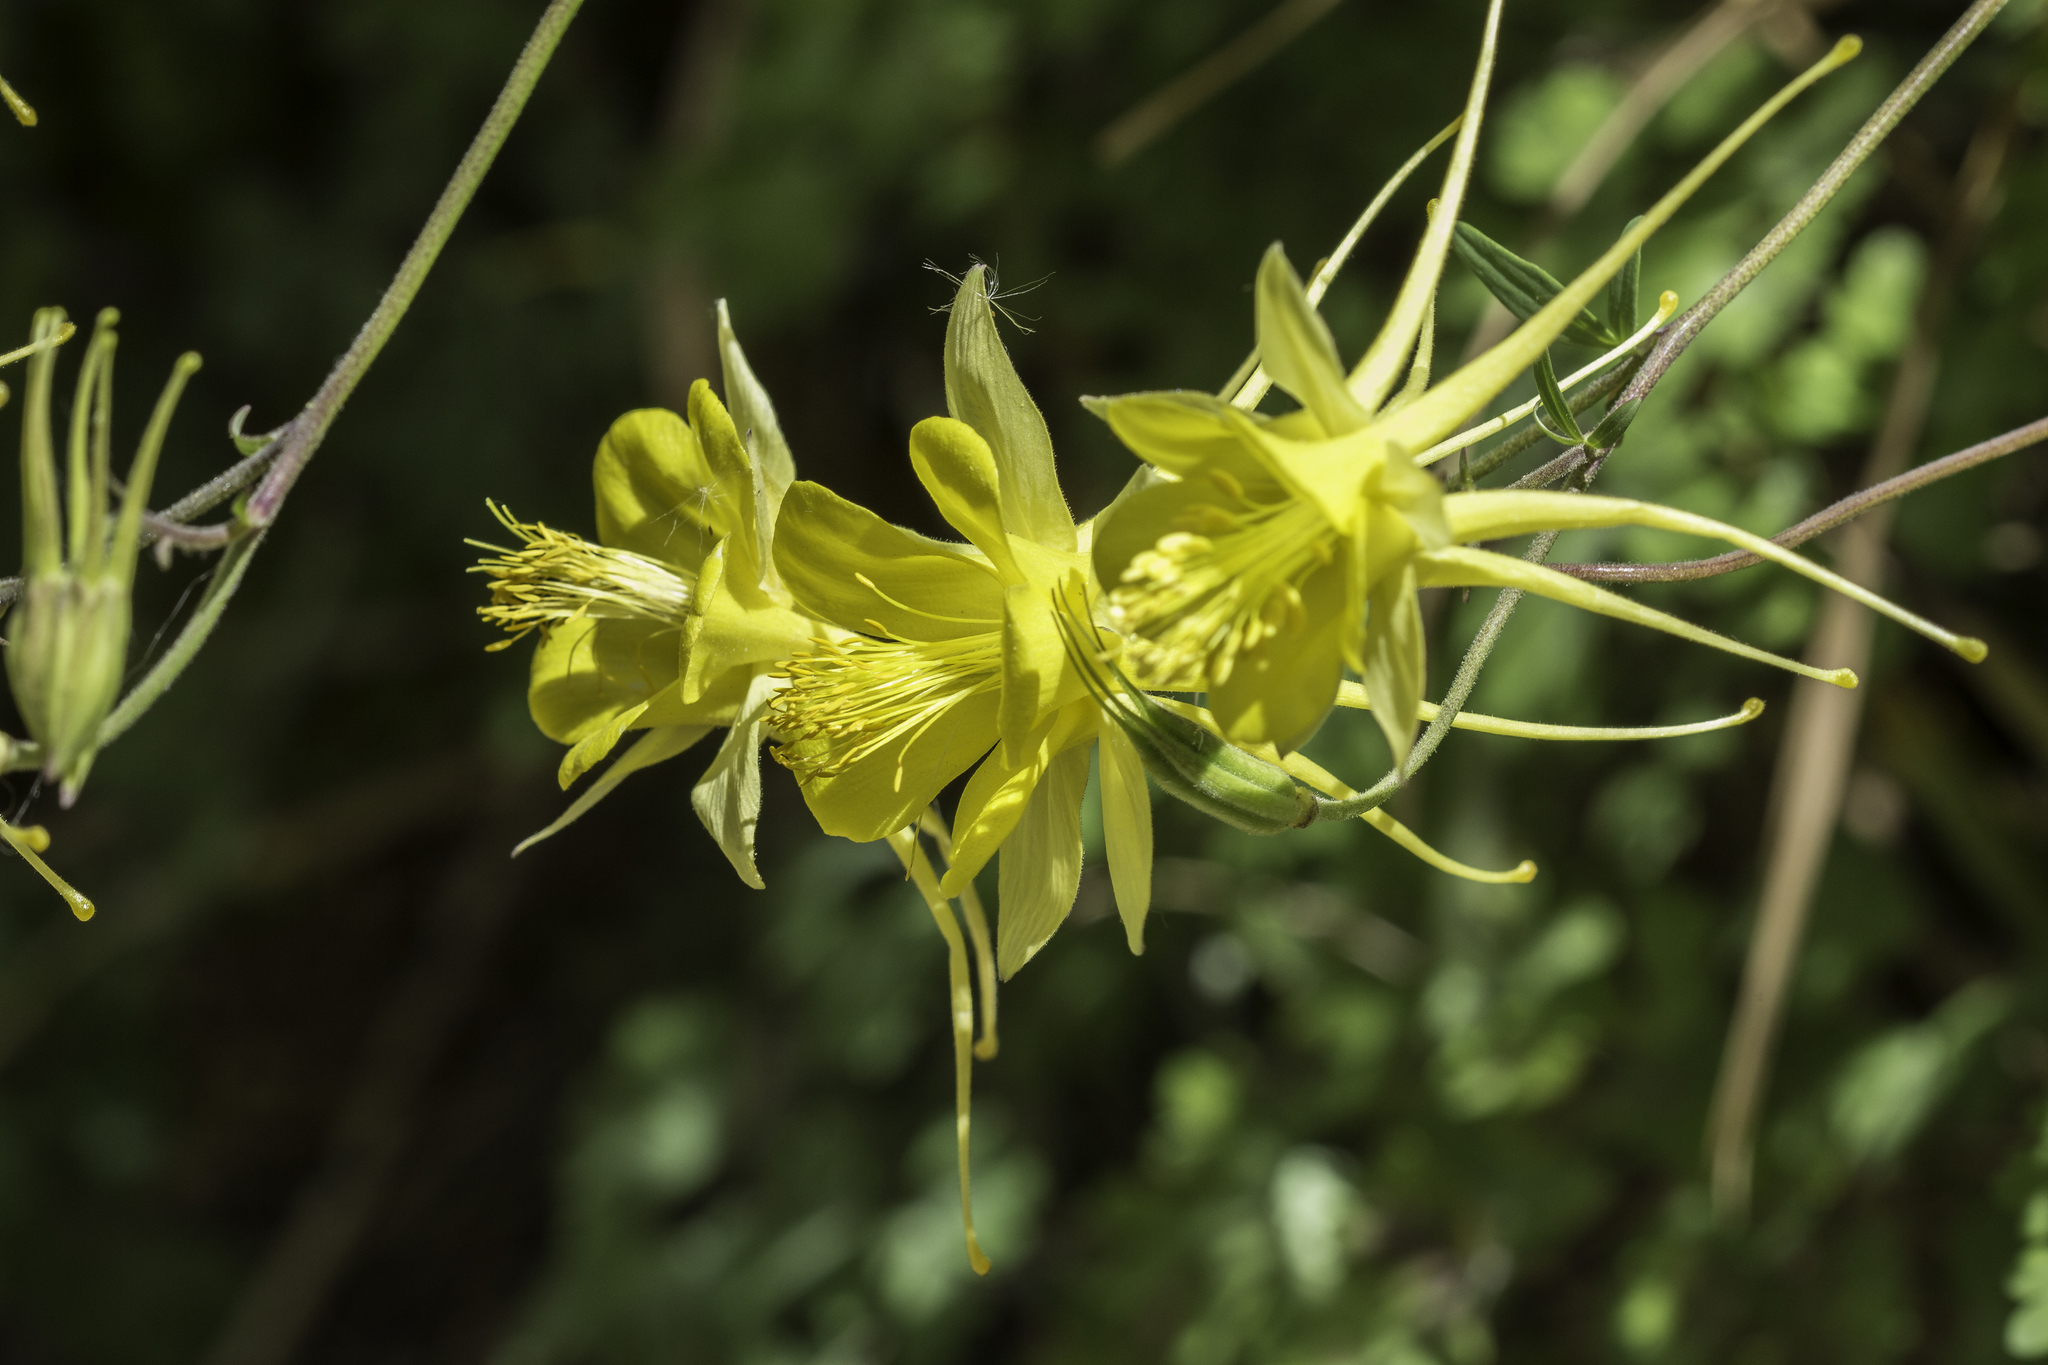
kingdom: Plantae
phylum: Tracheophyta
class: Magnoliopsida
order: Ranunculales
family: Ranunculaceae
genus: Aquilegia
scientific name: Aquilegia chrysantha
